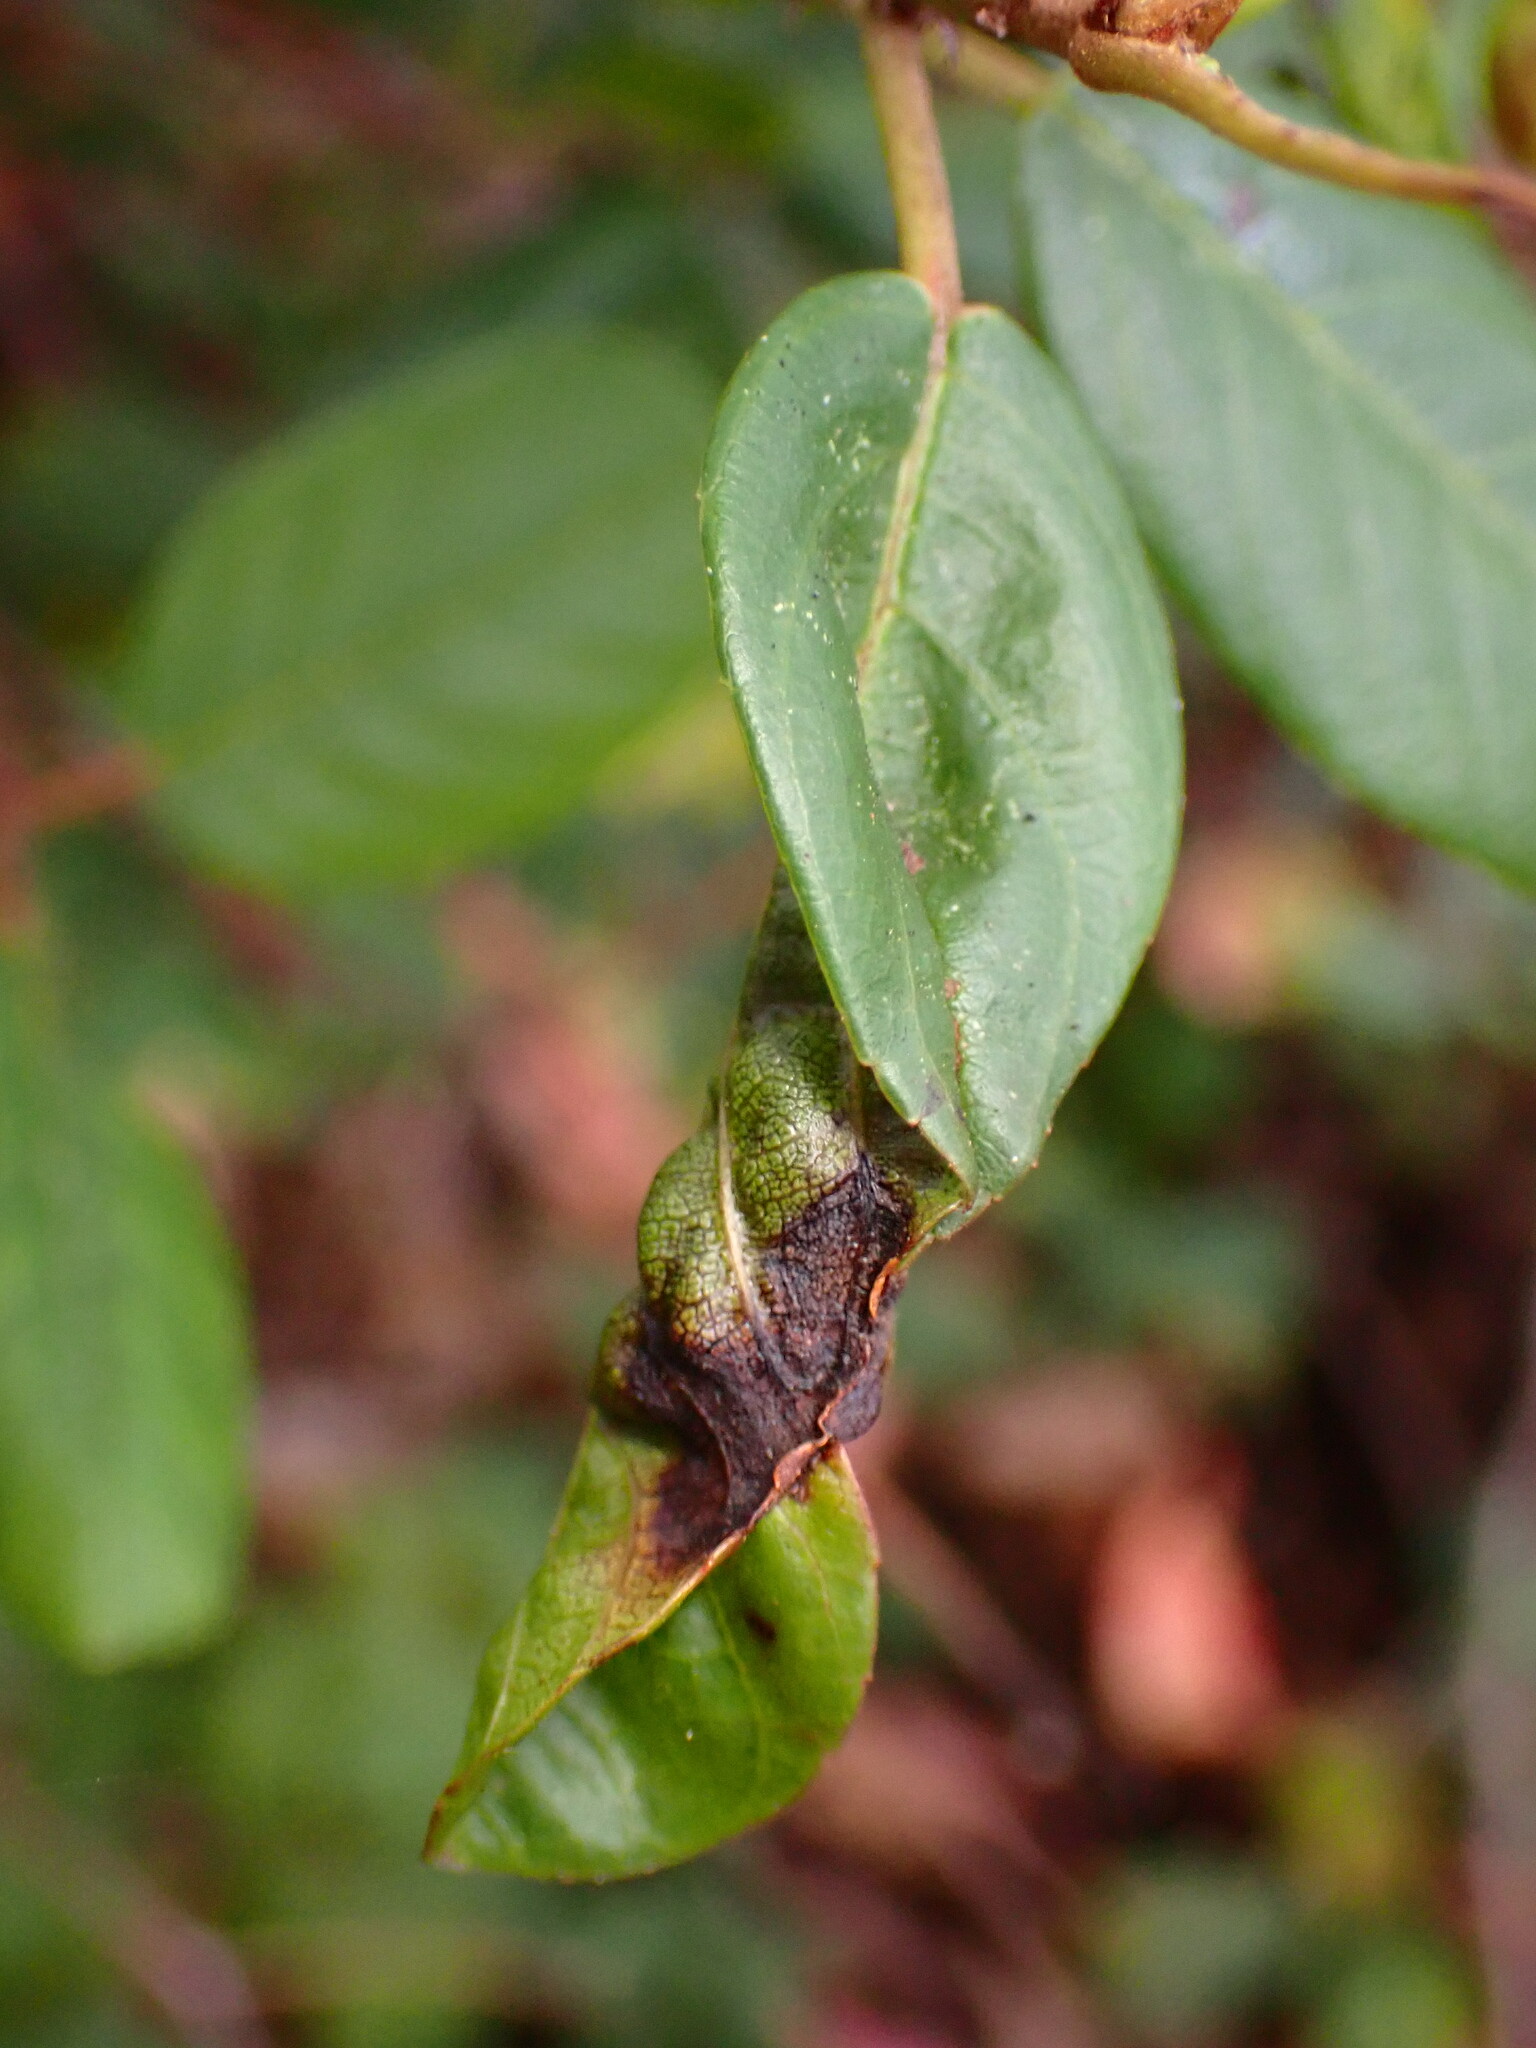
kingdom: Animalia
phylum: Arthropoda
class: Insecta
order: Lepidoptera
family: Cosmopterigidae
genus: Sorhagenia
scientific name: Sorhagenia nimbosus
